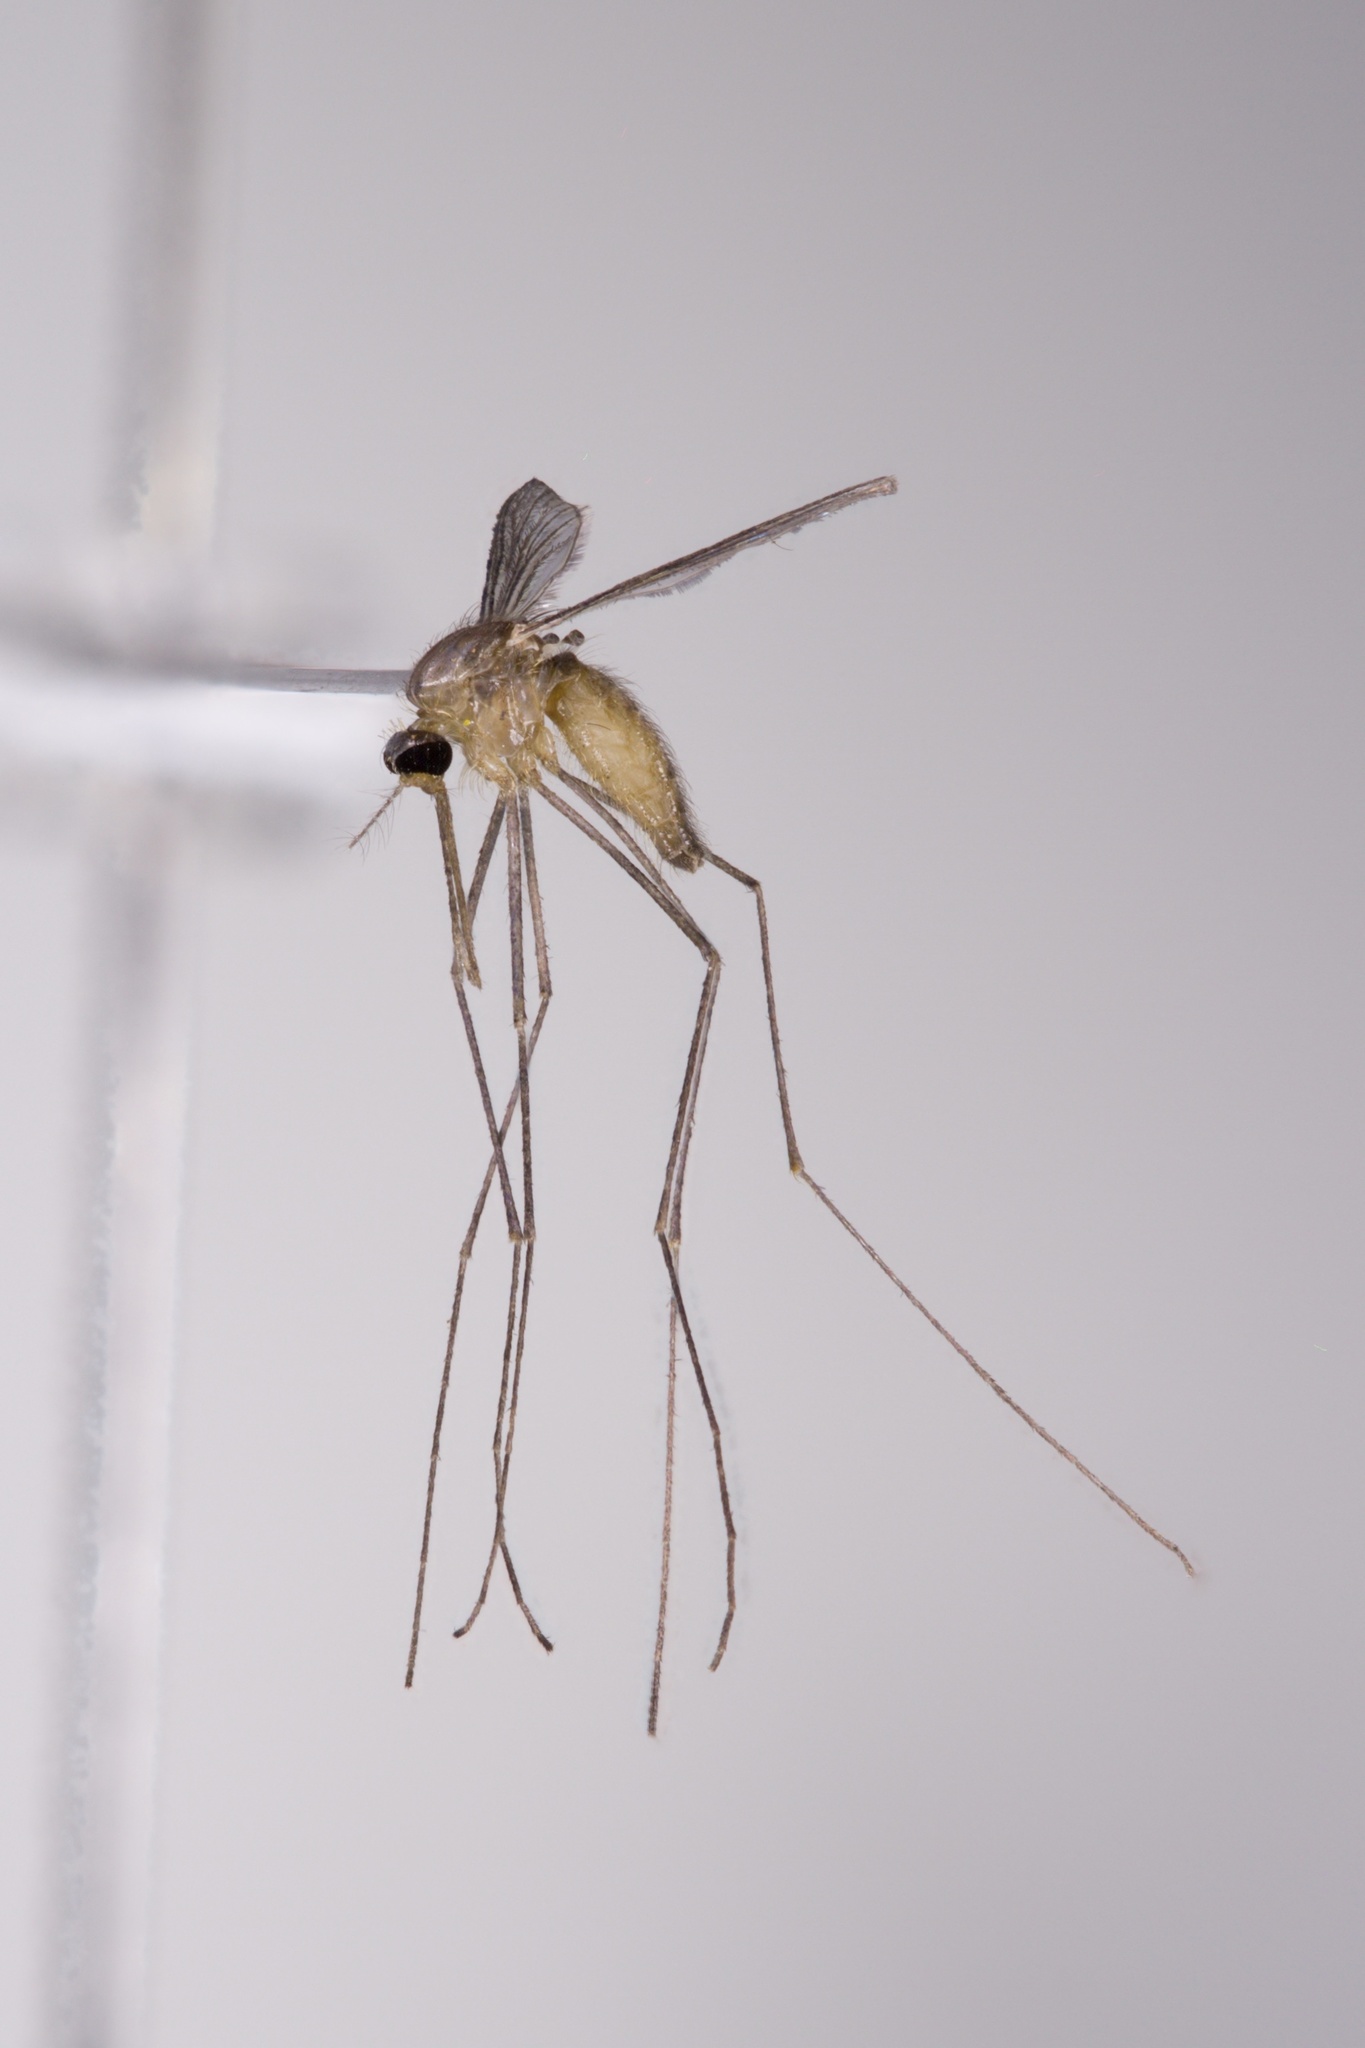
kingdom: Animalia
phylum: Arthropoda
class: Insecta
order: Diptera
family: Culicidae
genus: Anopheles
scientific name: Anopheles barberi
